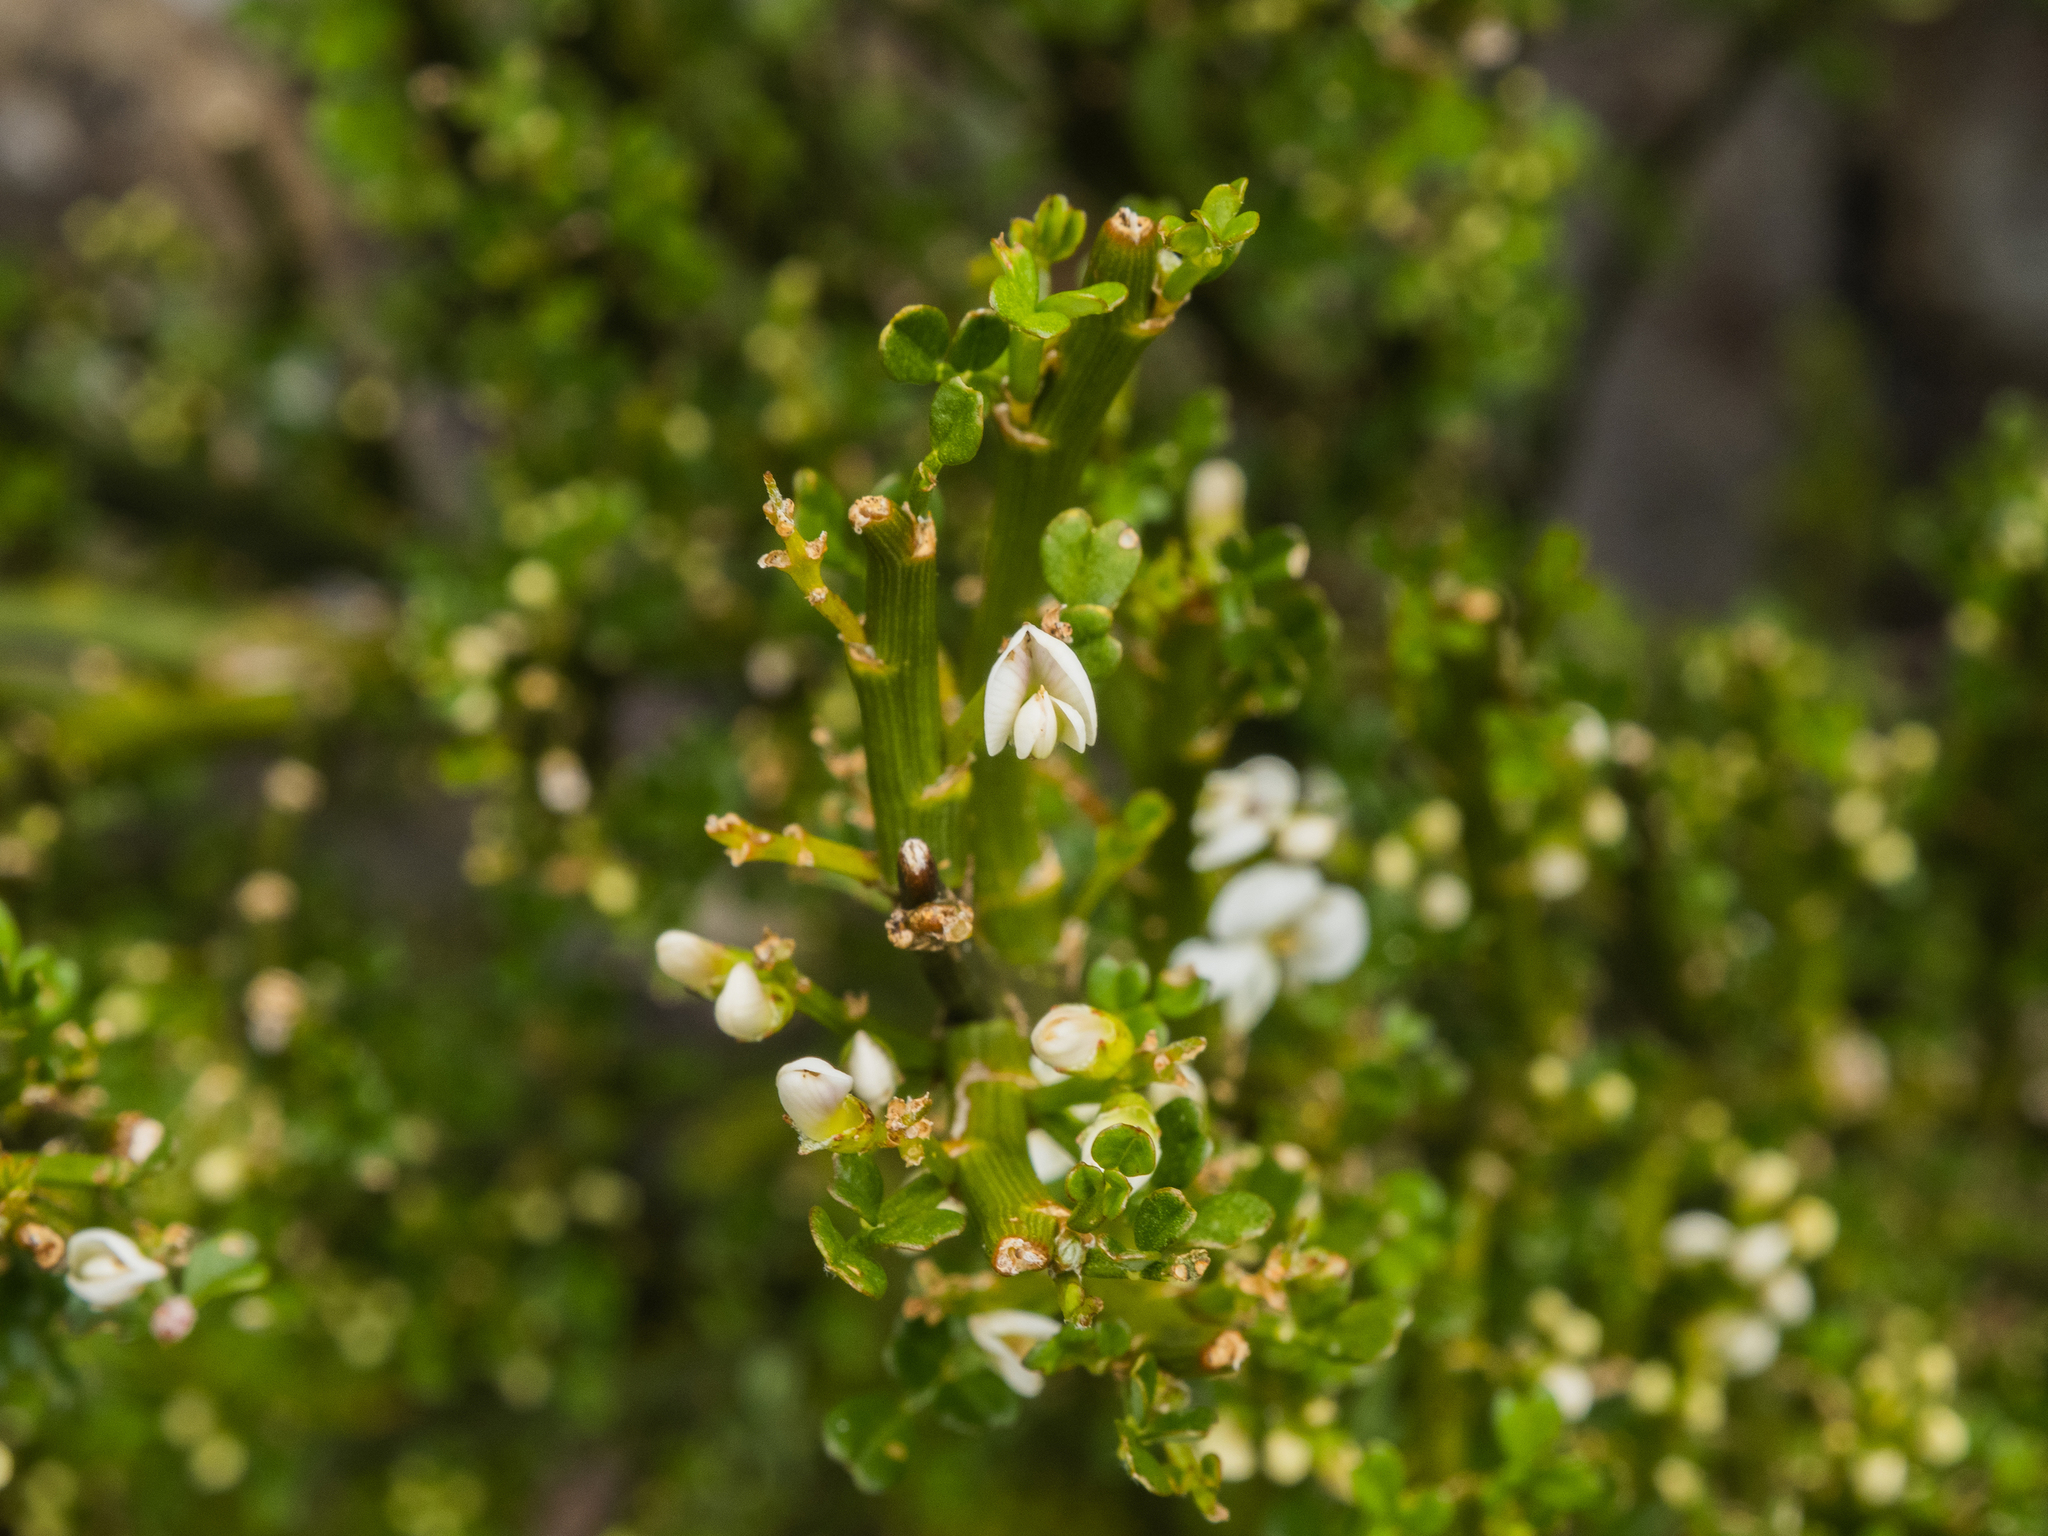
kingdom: Plantae
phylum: Tracheophyta
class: Magnoliopsida
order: Fabales
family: Fabaceae
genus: Carmichaelia
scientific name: Carmichaelia arborea
